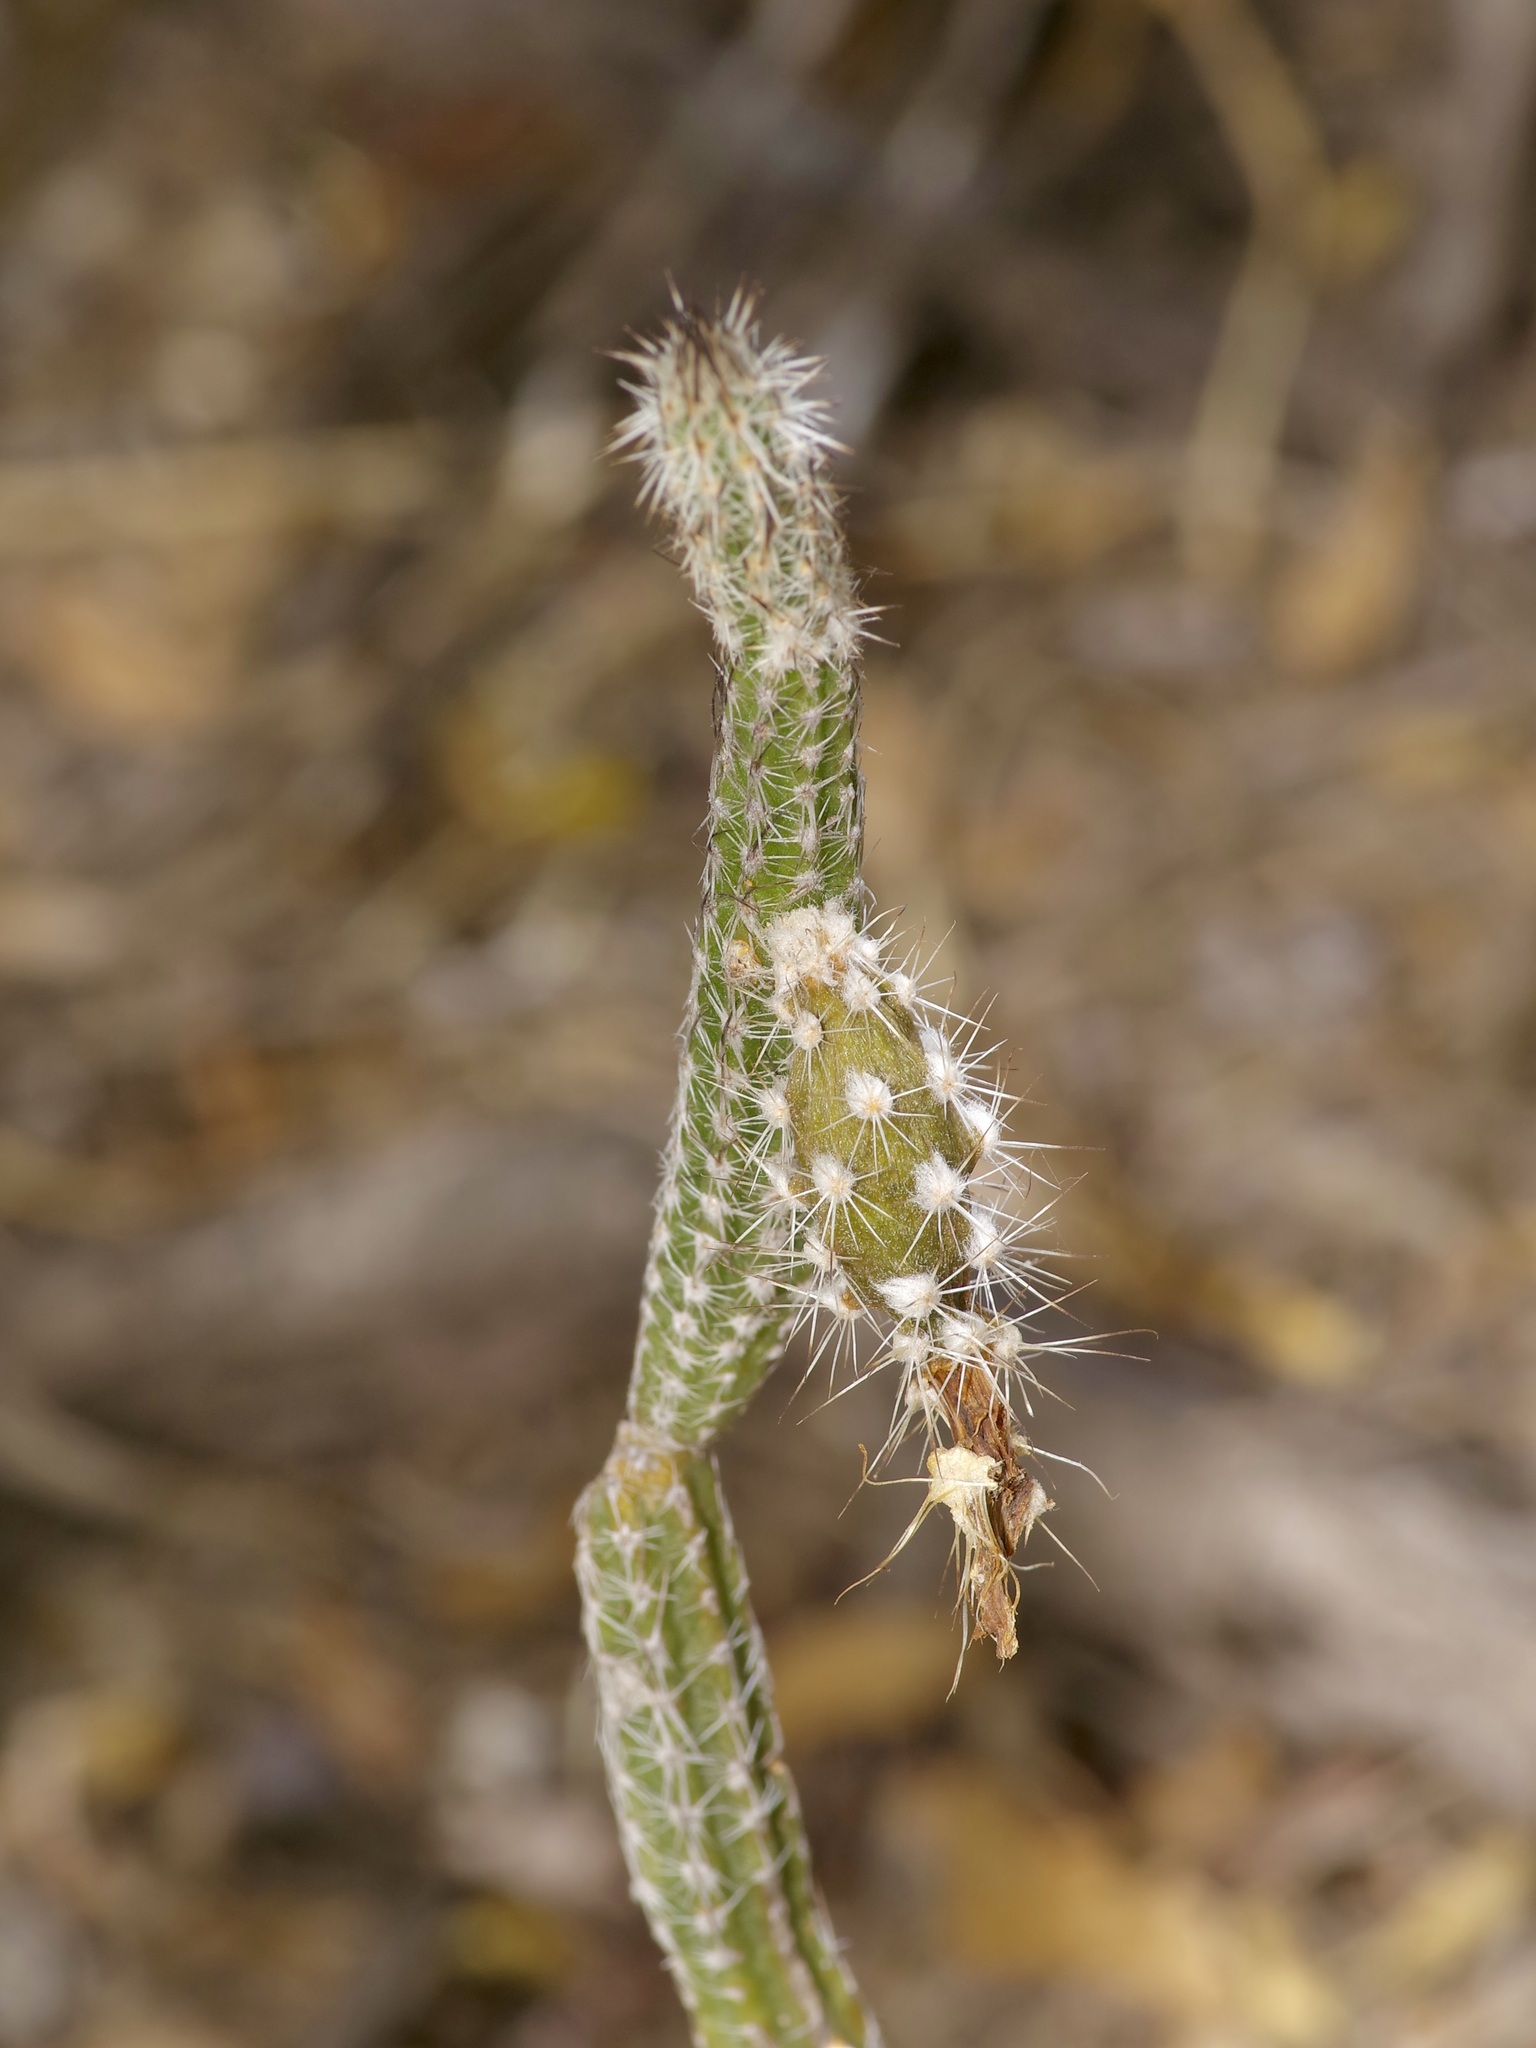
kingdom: Plantae
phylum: Tracheophyta
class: Magnoliopsida
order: Caryophyllales
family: Cactaceae
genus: Echinocereus
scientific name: Echinocereus poselgeri
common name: Dahlia apple cactus
